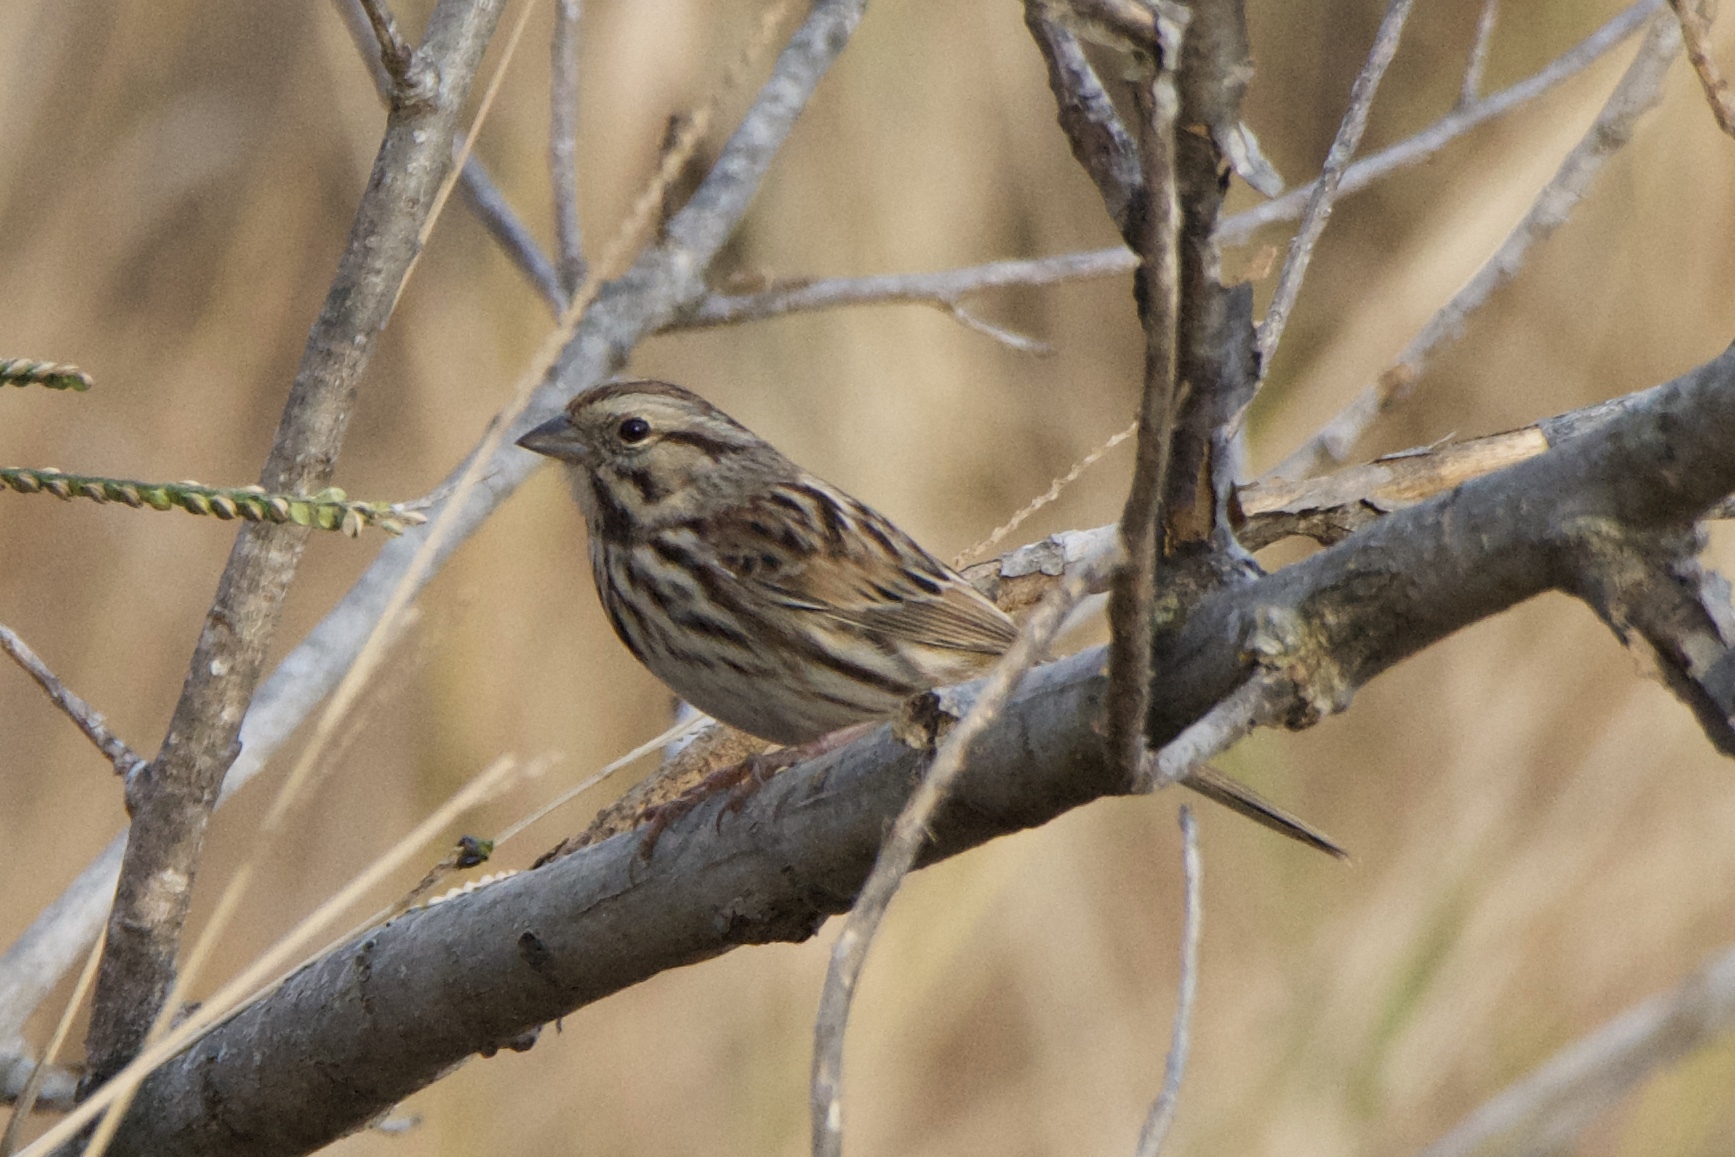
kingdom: Animalia
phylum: Chordata
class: Aves
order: Passeriformes
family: Passerellidae
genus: Melospiza
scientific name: Melospiza melodia
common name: Song sparrow
